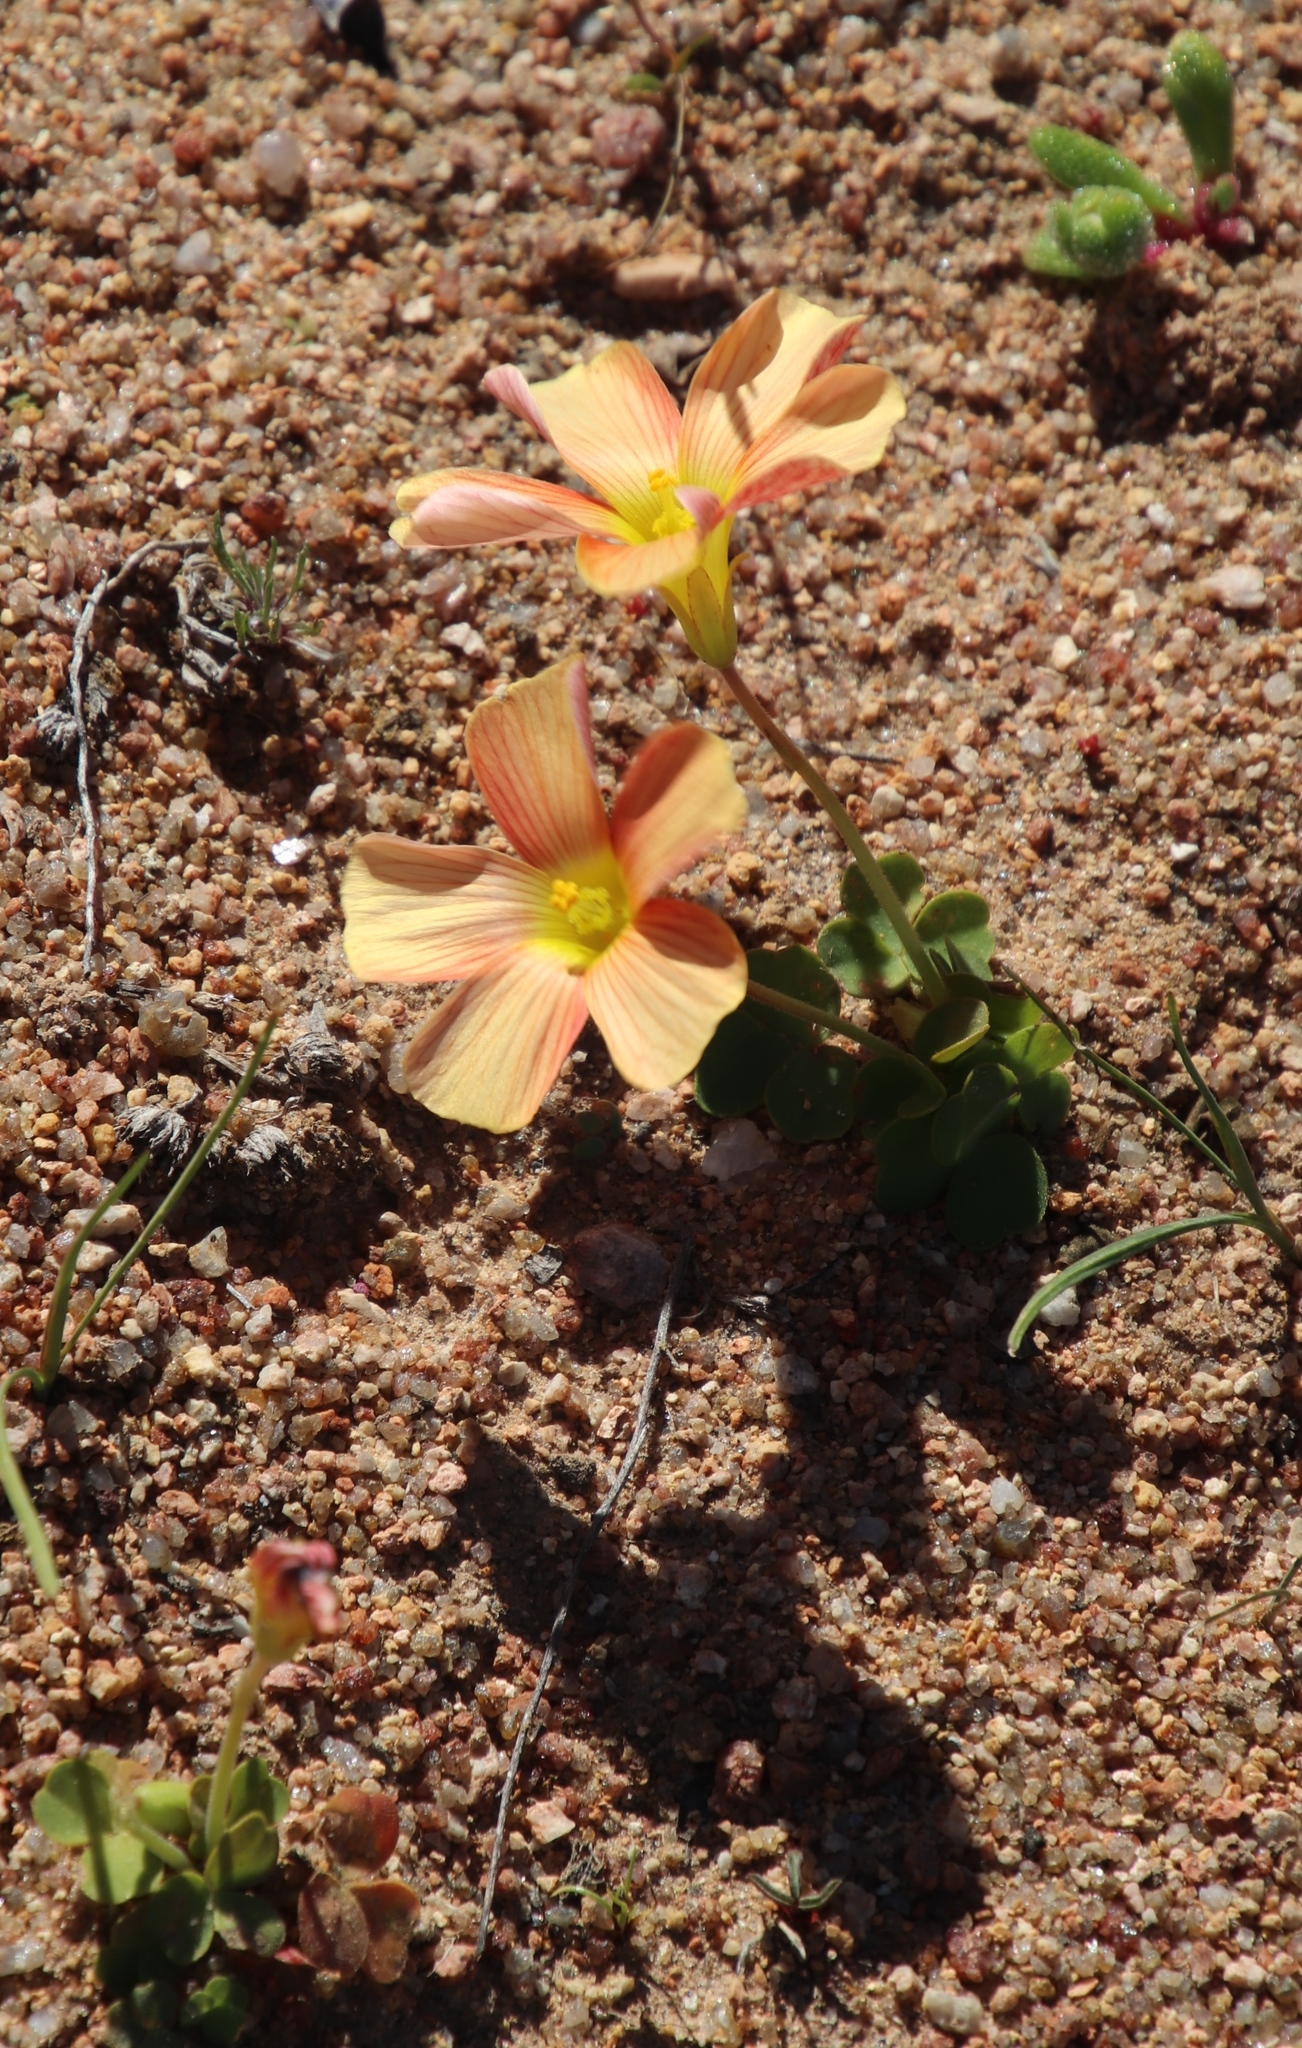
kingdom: Plantae
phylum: Tracheophyta
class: Magnoliopsida
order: Oxalidales
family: Oxalidaceae
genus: Oxalis
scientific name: Oxalis obtusa
